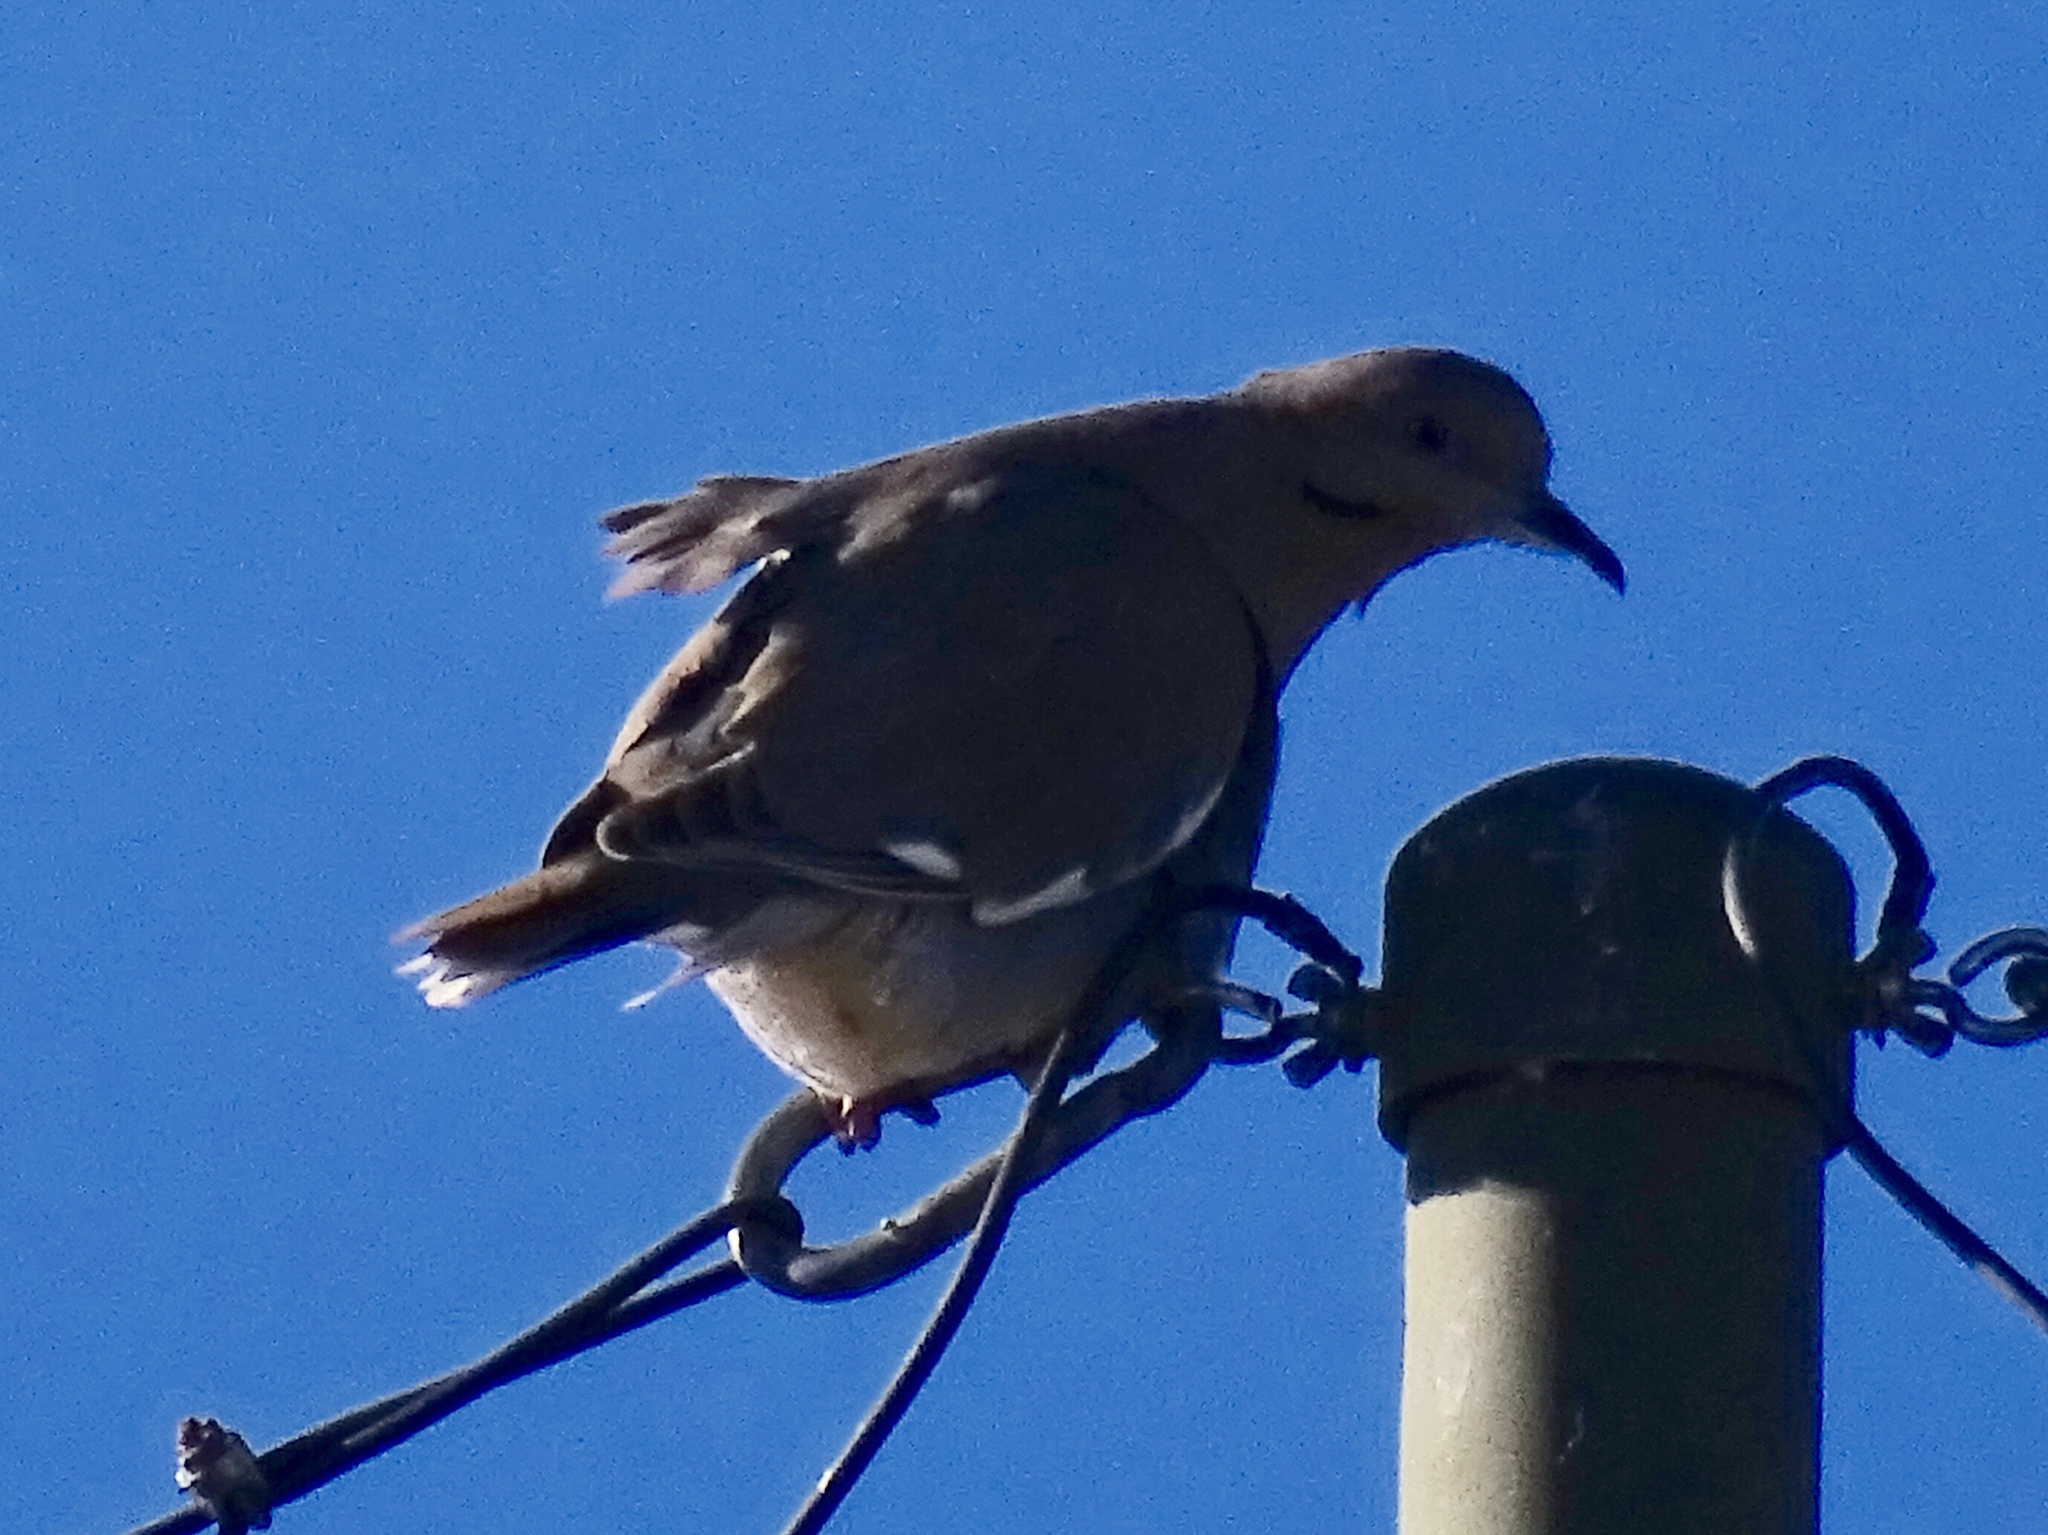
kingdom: Animalia
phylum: Chordata
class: Aves
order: Columbiformes
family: Columbidae
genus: Zenaida
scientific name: Zenaida asiatica
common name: White-winged dove
